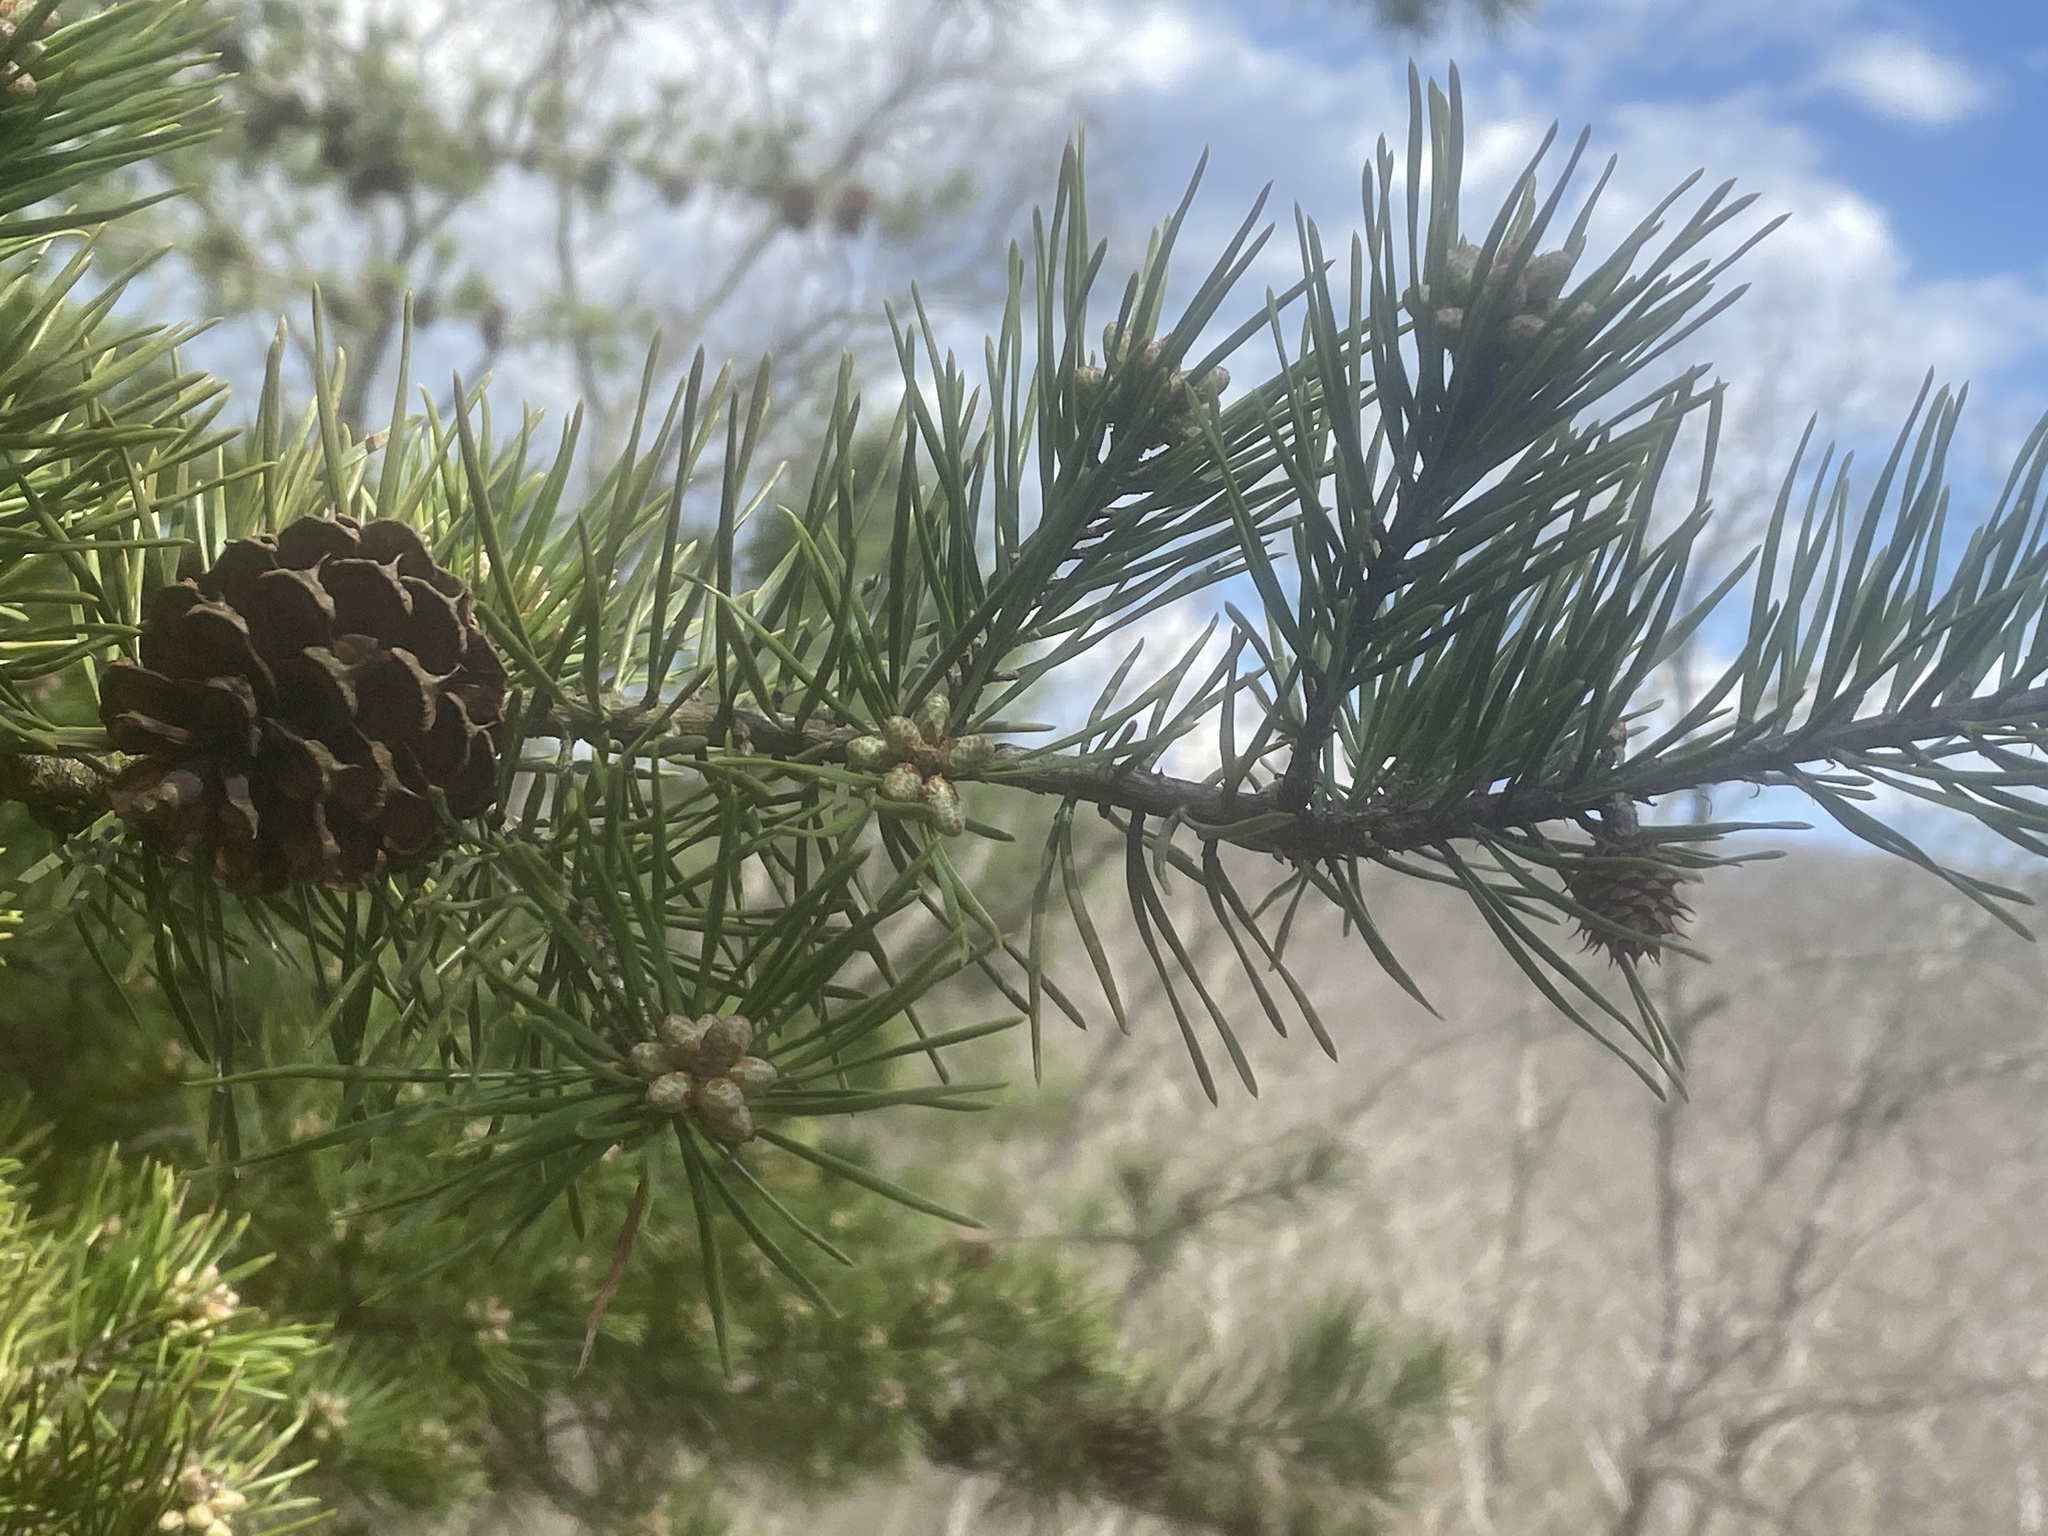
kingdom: Plantae
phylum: Tracheophyta
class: Pinopsida
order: Pinales
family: Pinaceae
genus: Pinus
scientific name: Pinus virginiana
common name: Scrub pine
